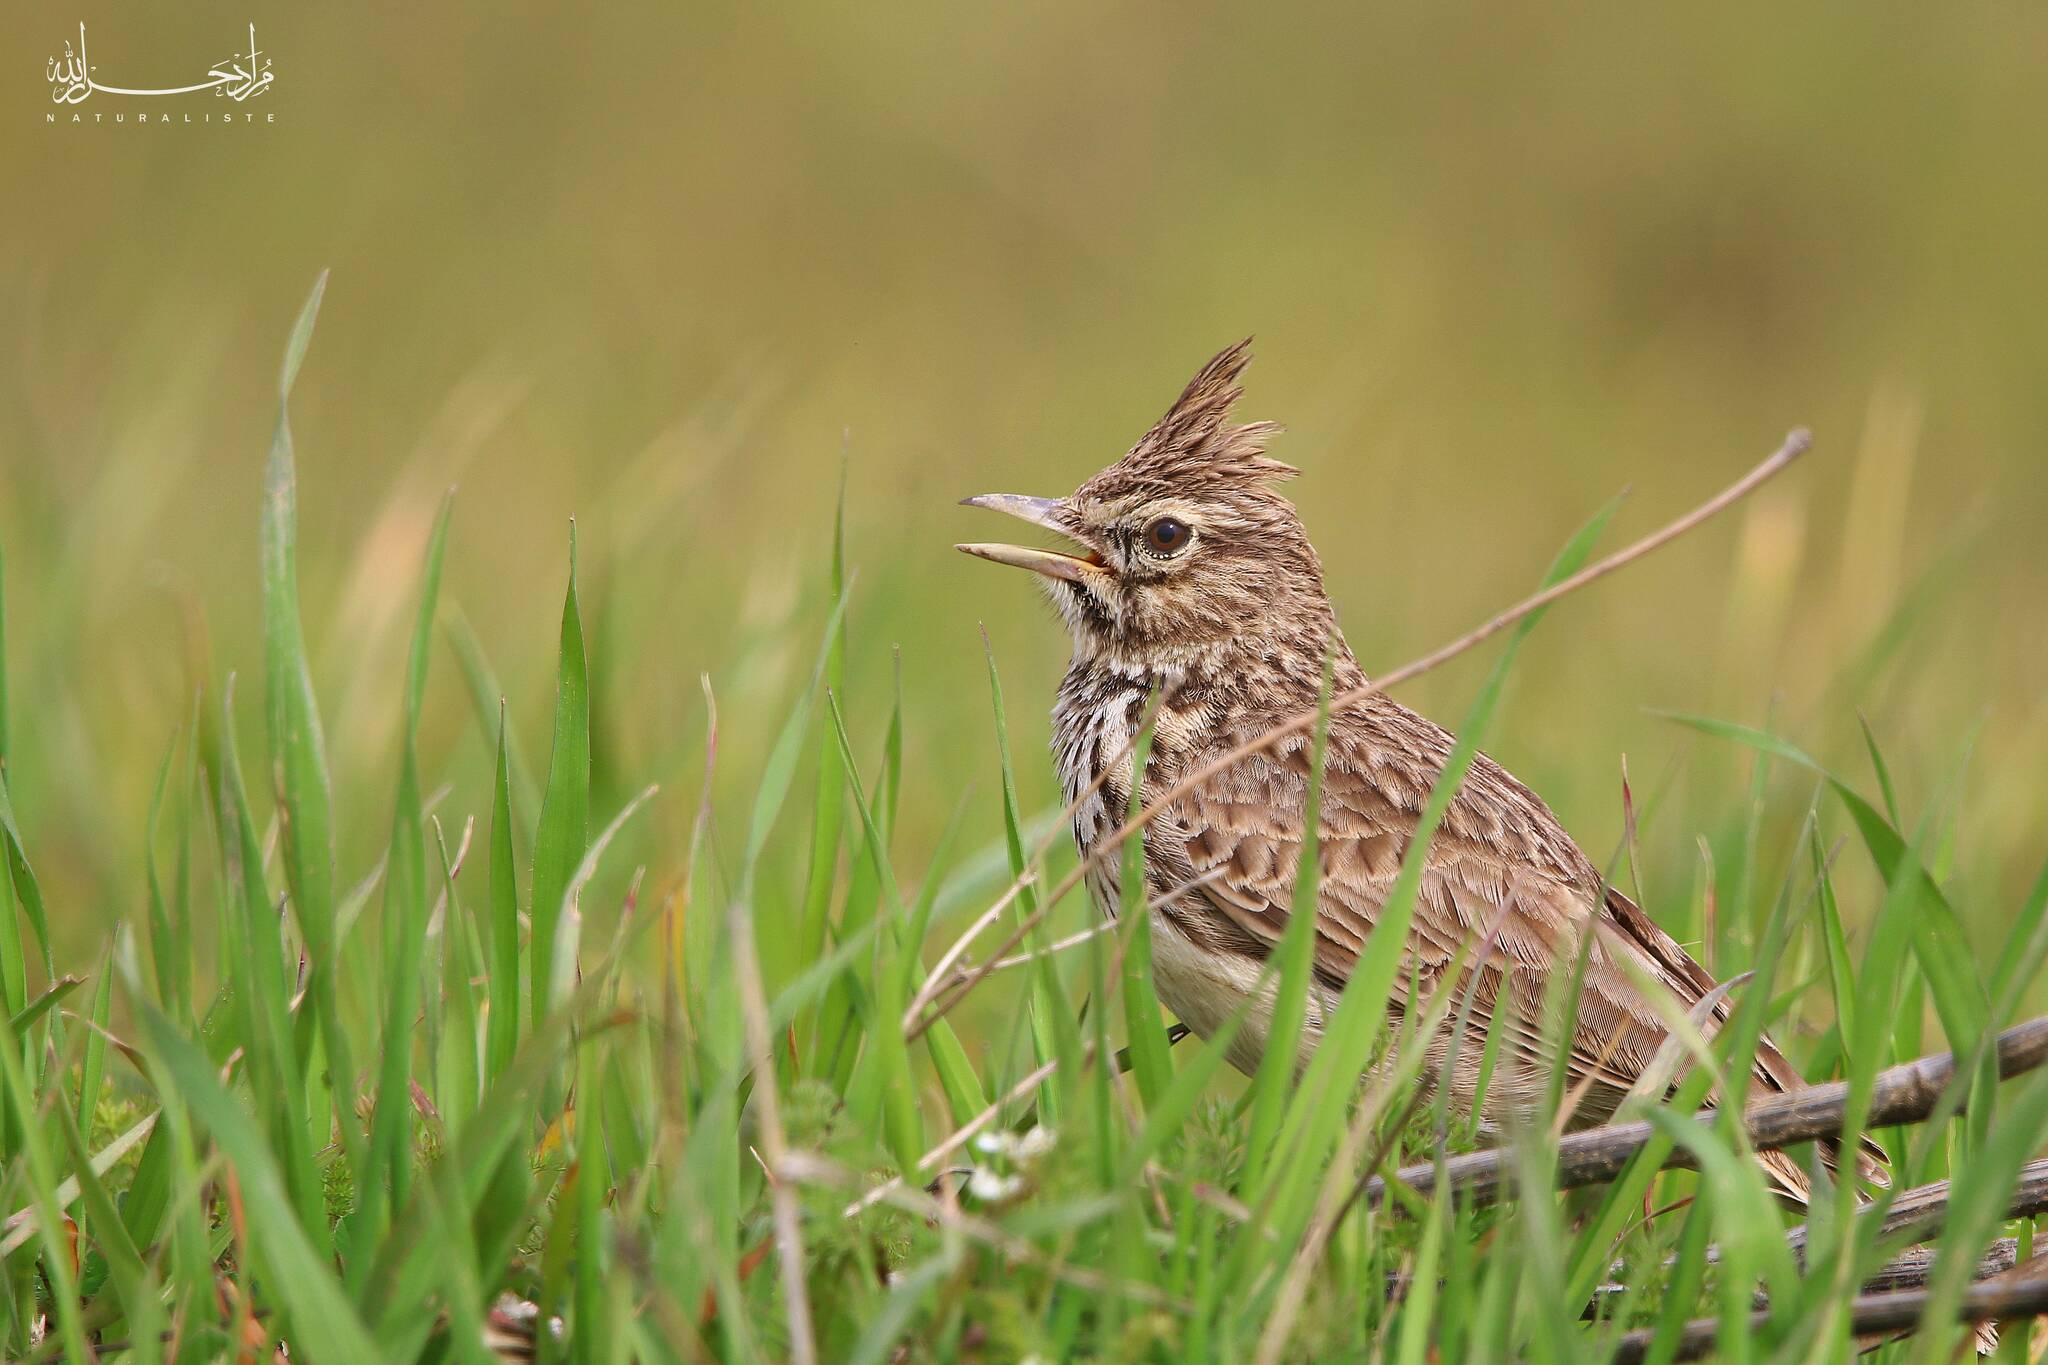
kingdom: Animalia
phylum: Chordata
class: Aves
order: Passeriformes
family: Alaudidae
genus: Galerida
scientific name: Galerida cristata
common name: Crested lark
